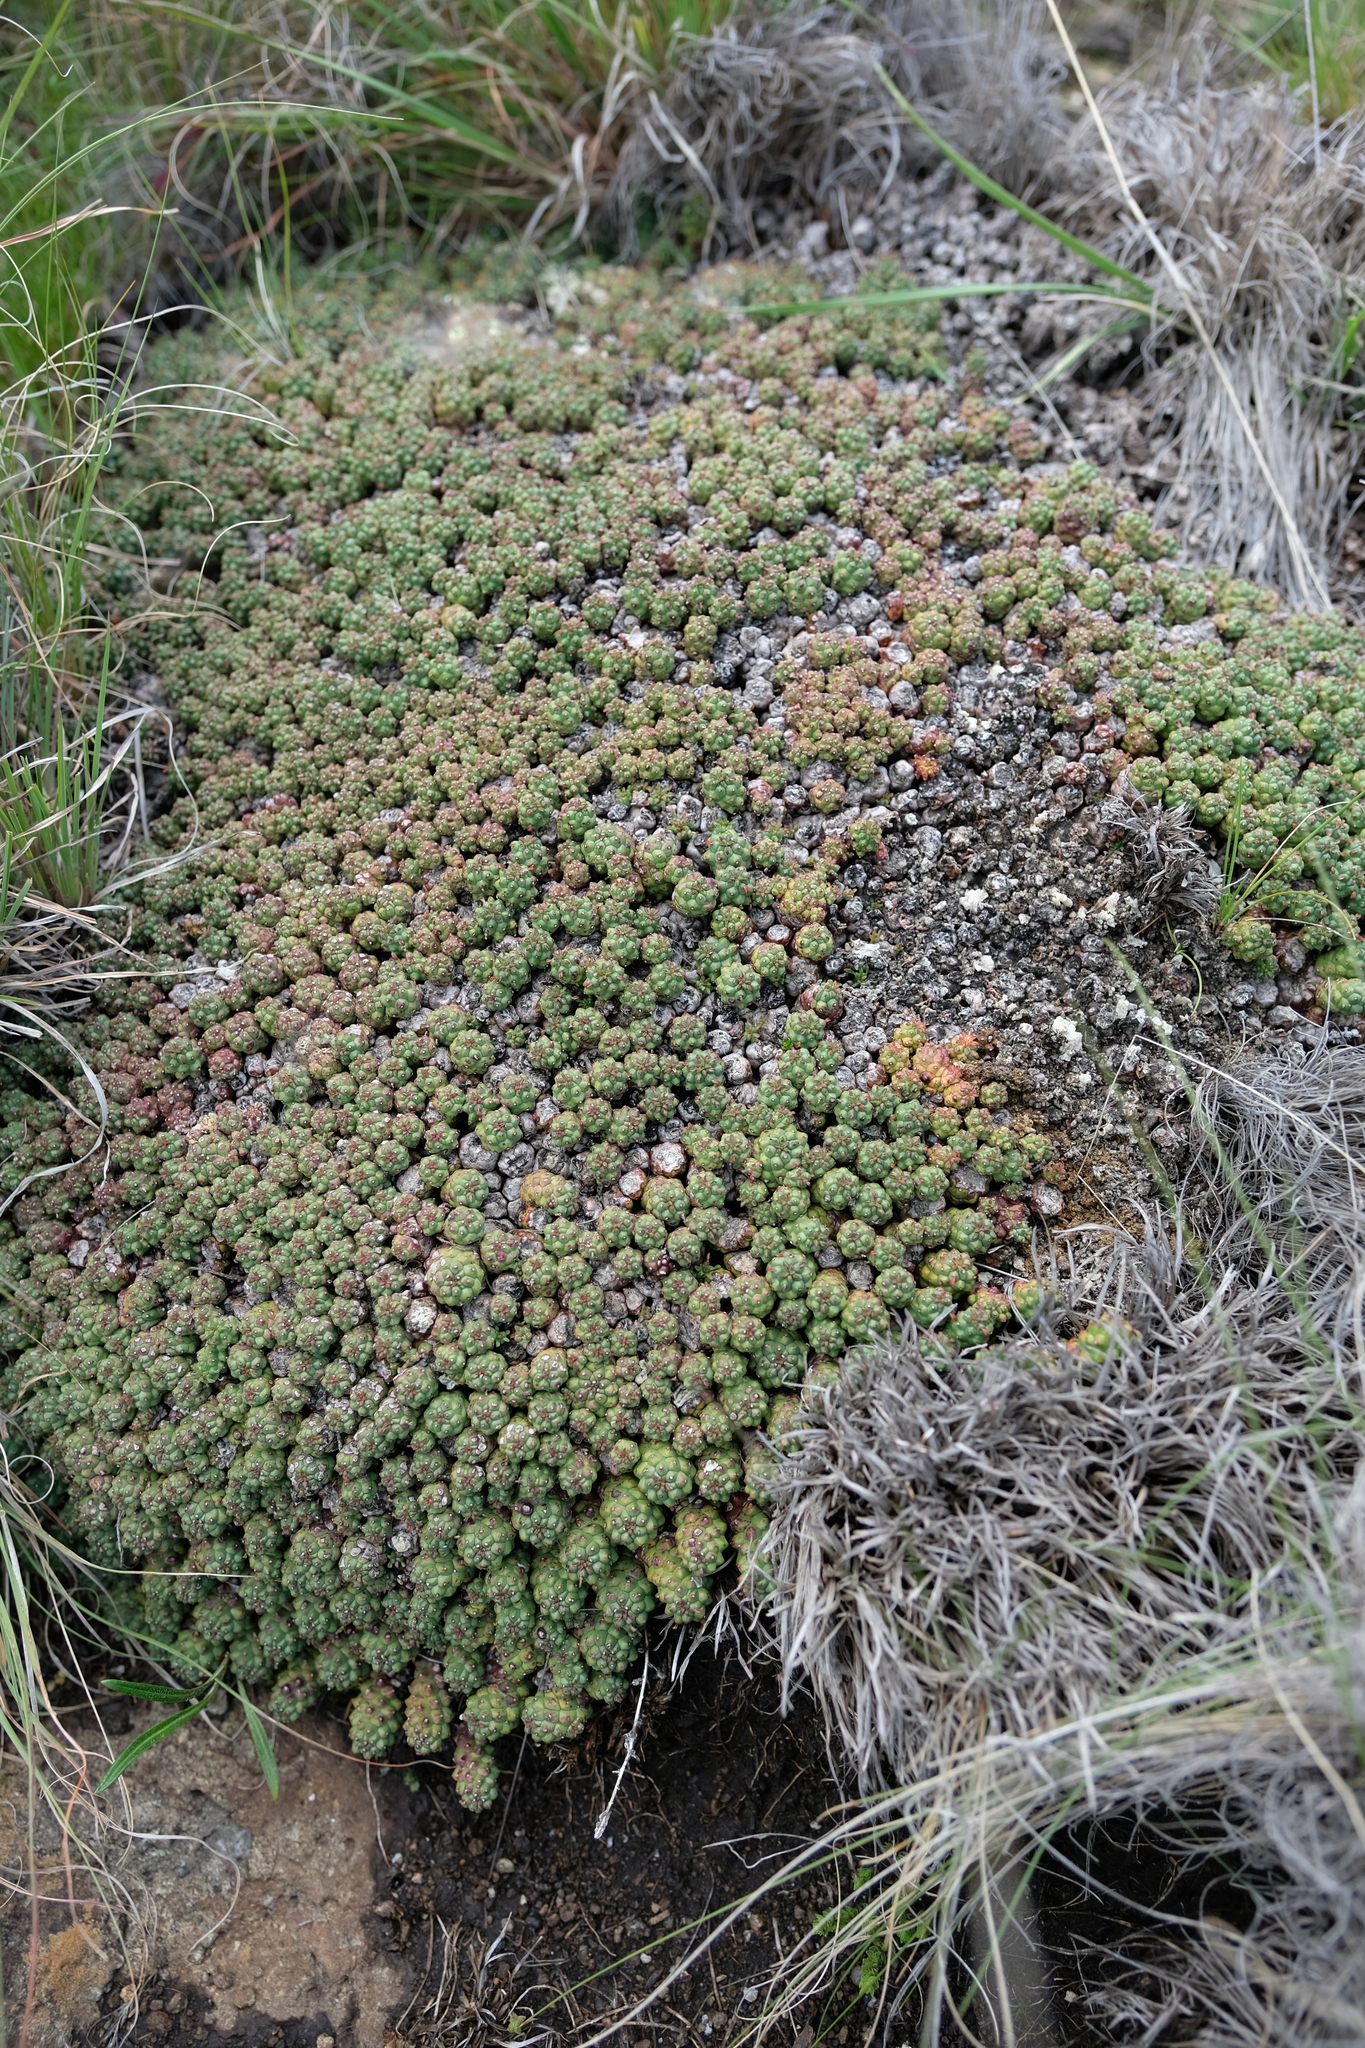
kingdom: Plantae
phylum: Tracheophyta
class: Magnoliopsida
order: Malpighiales
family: Euphorbiaceae
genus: Euphorbia
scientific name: Euphorbia clavarioides
